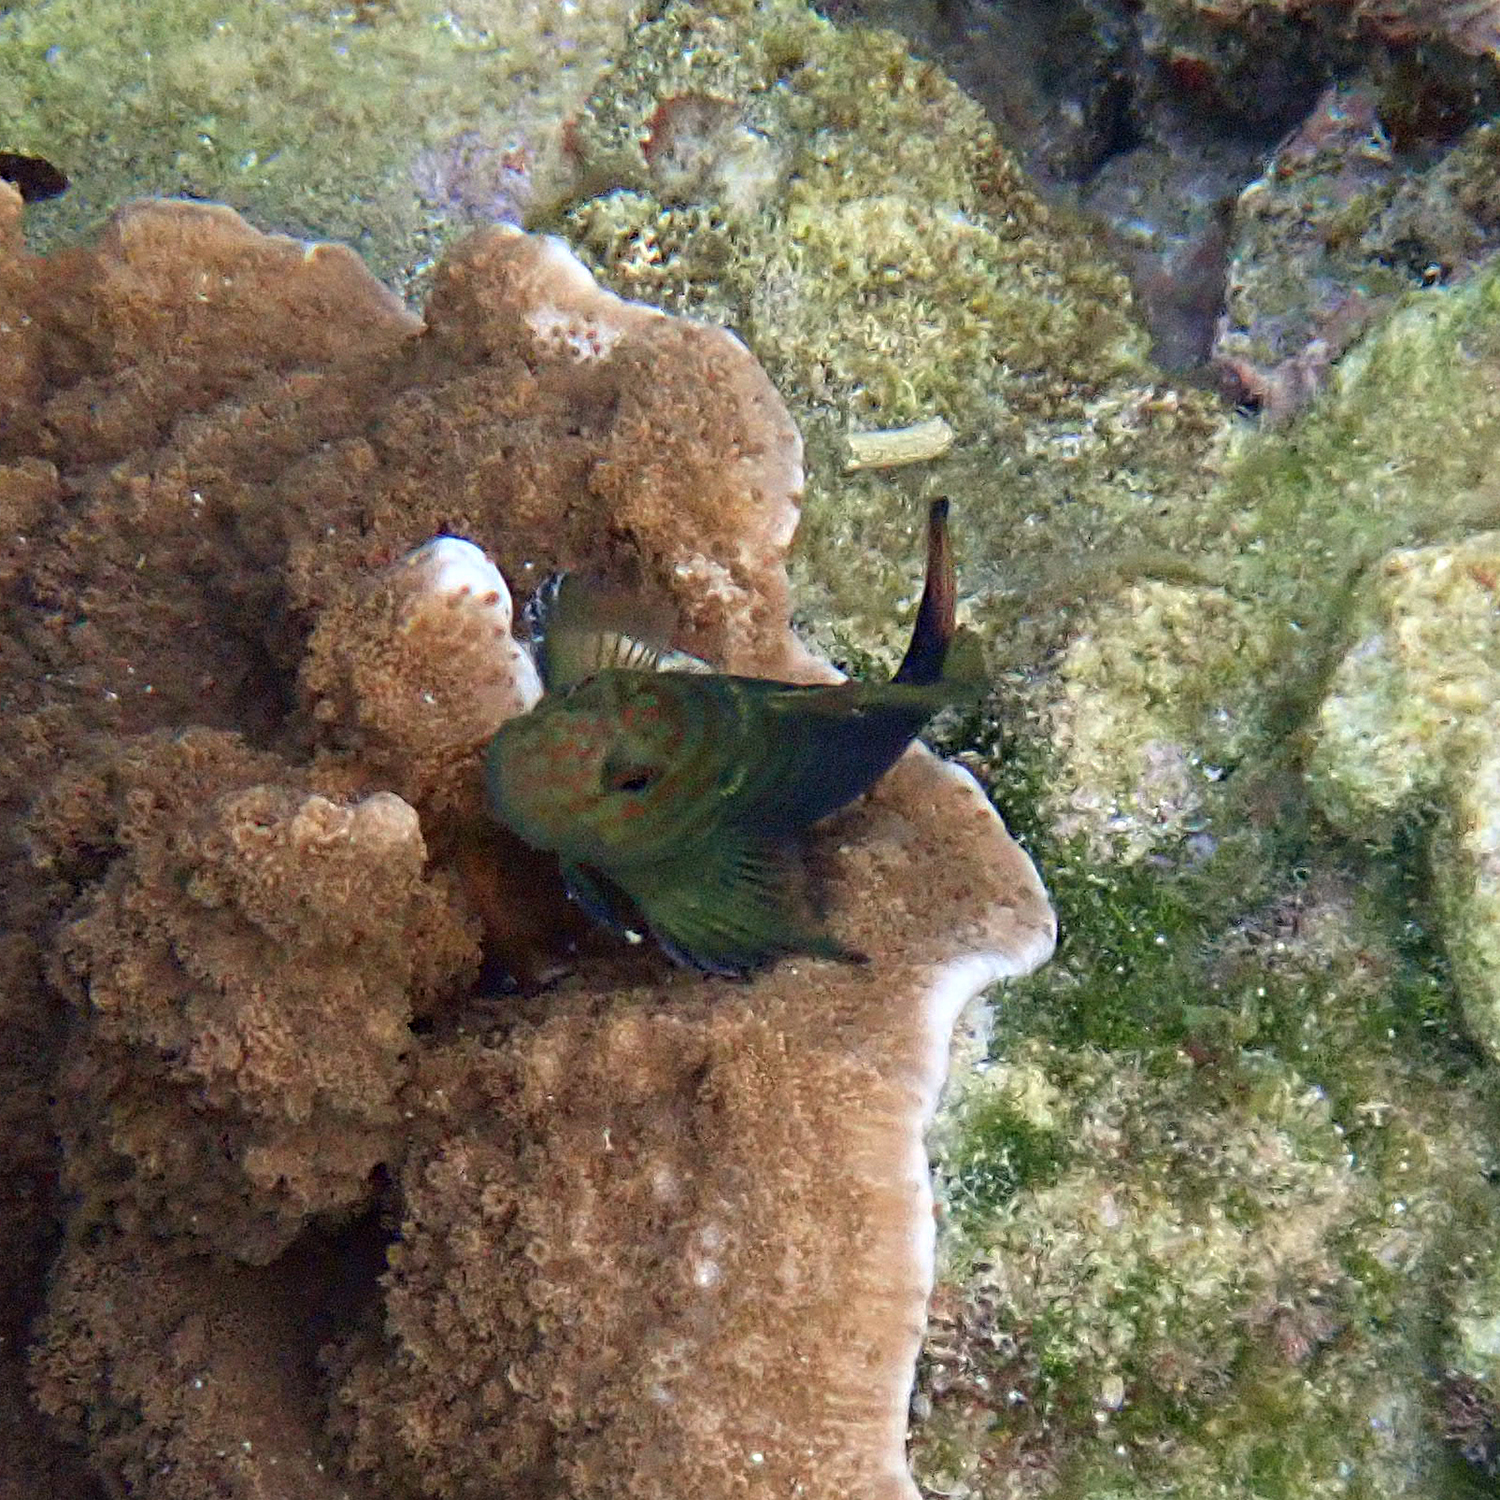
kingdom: Animalia
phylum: Chordata
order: Perciformes
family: Blenniidae
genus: Cirripectes
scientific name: Cirripectes castaneus
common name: Chestnut blenny
